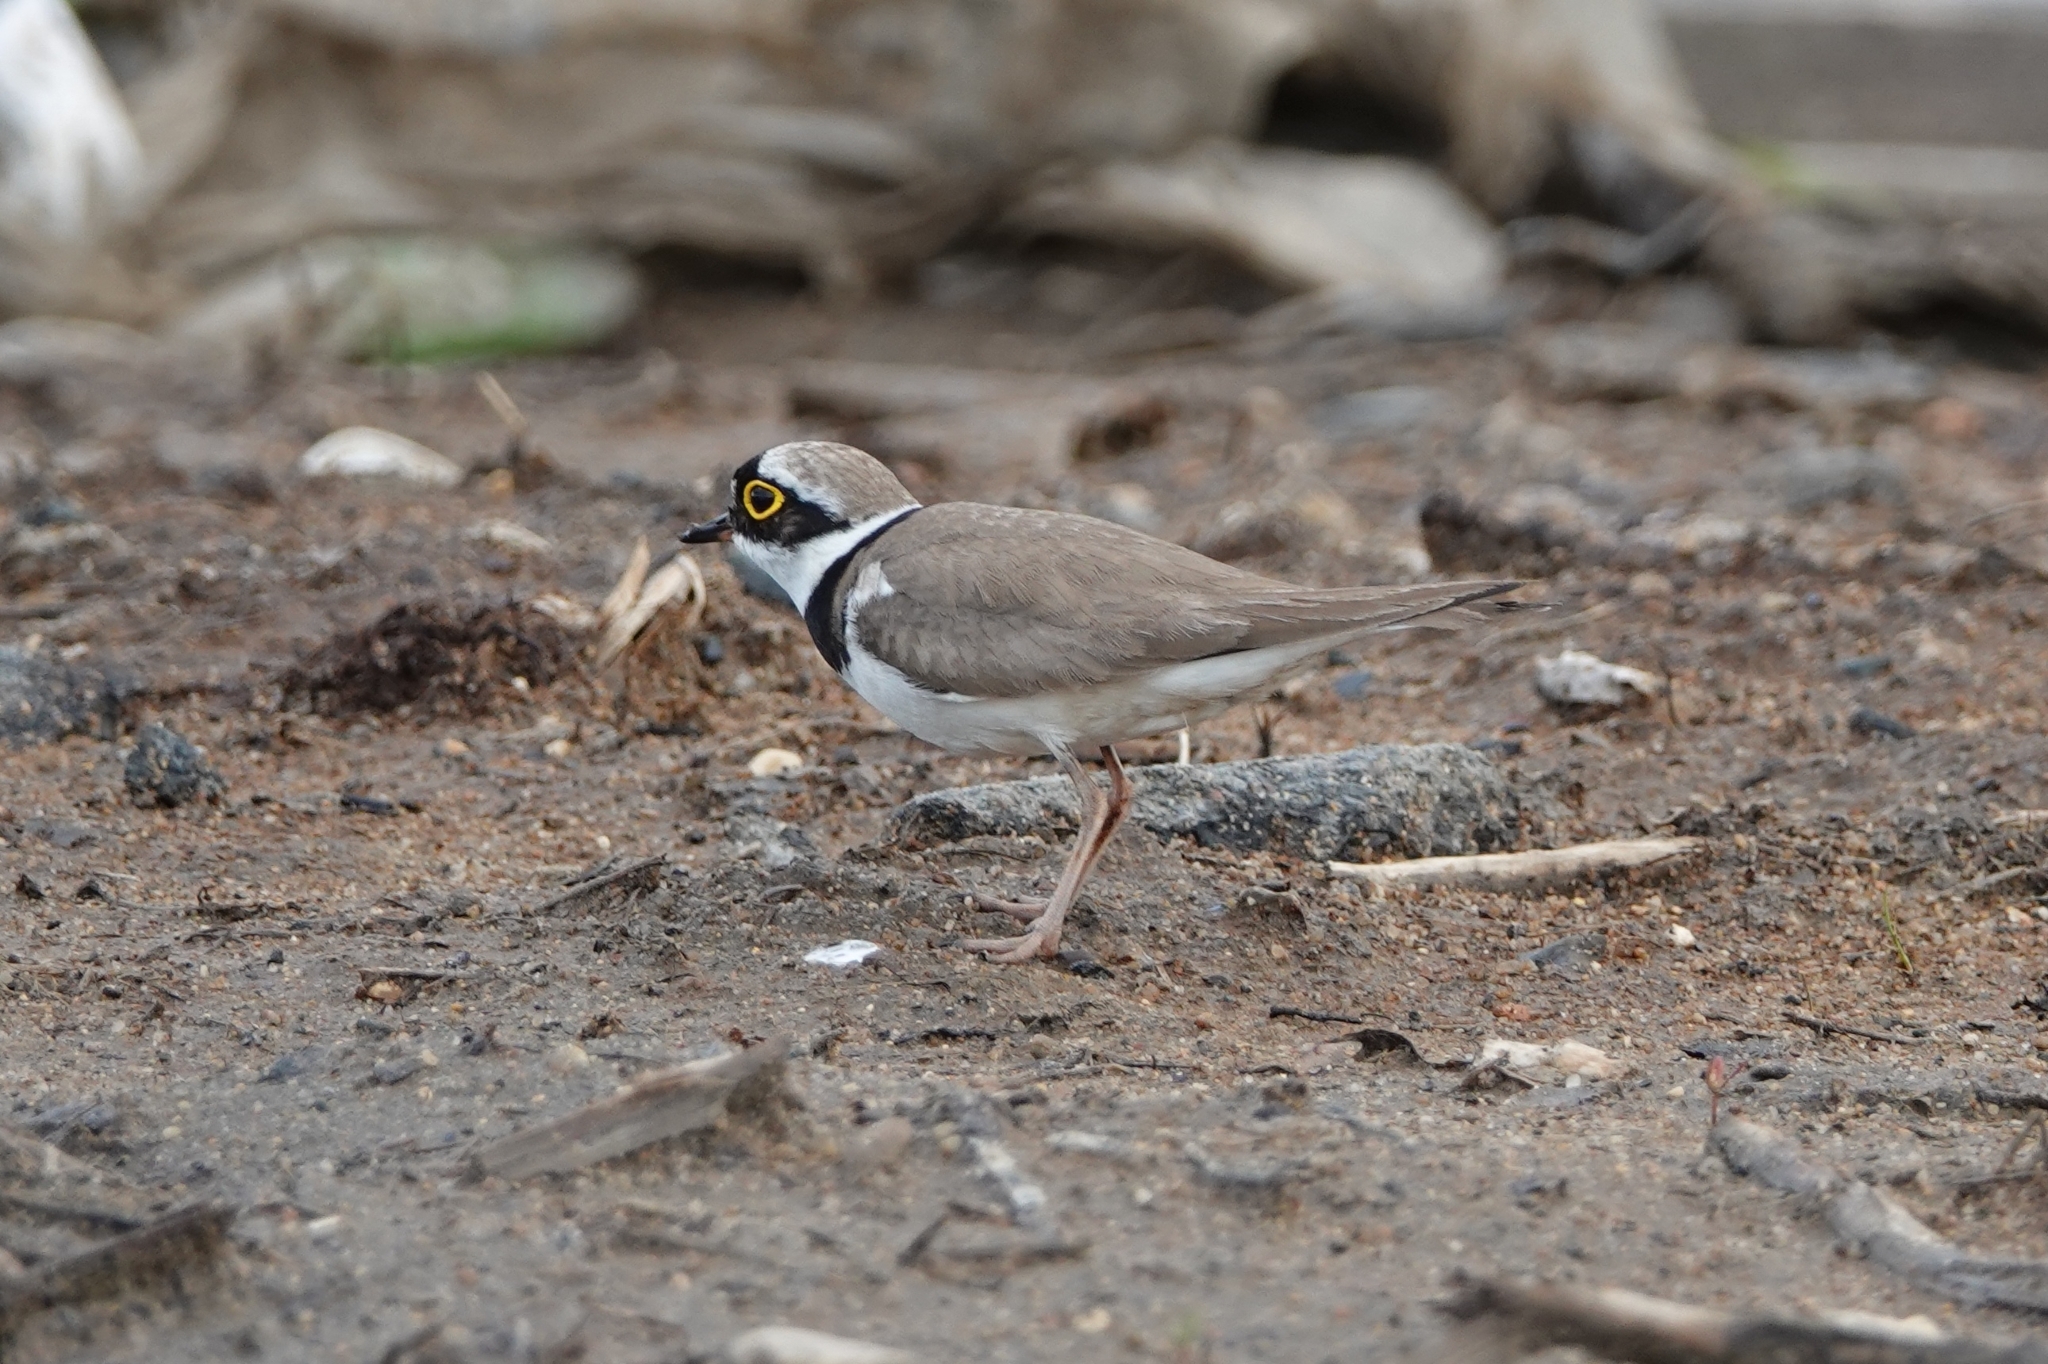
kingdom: Animalia
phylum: Chordata
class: Aves
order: Charadriiformes
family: Charadriidae
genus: Charadrius
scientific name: Charadrius dubius
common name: Little ringed plover
